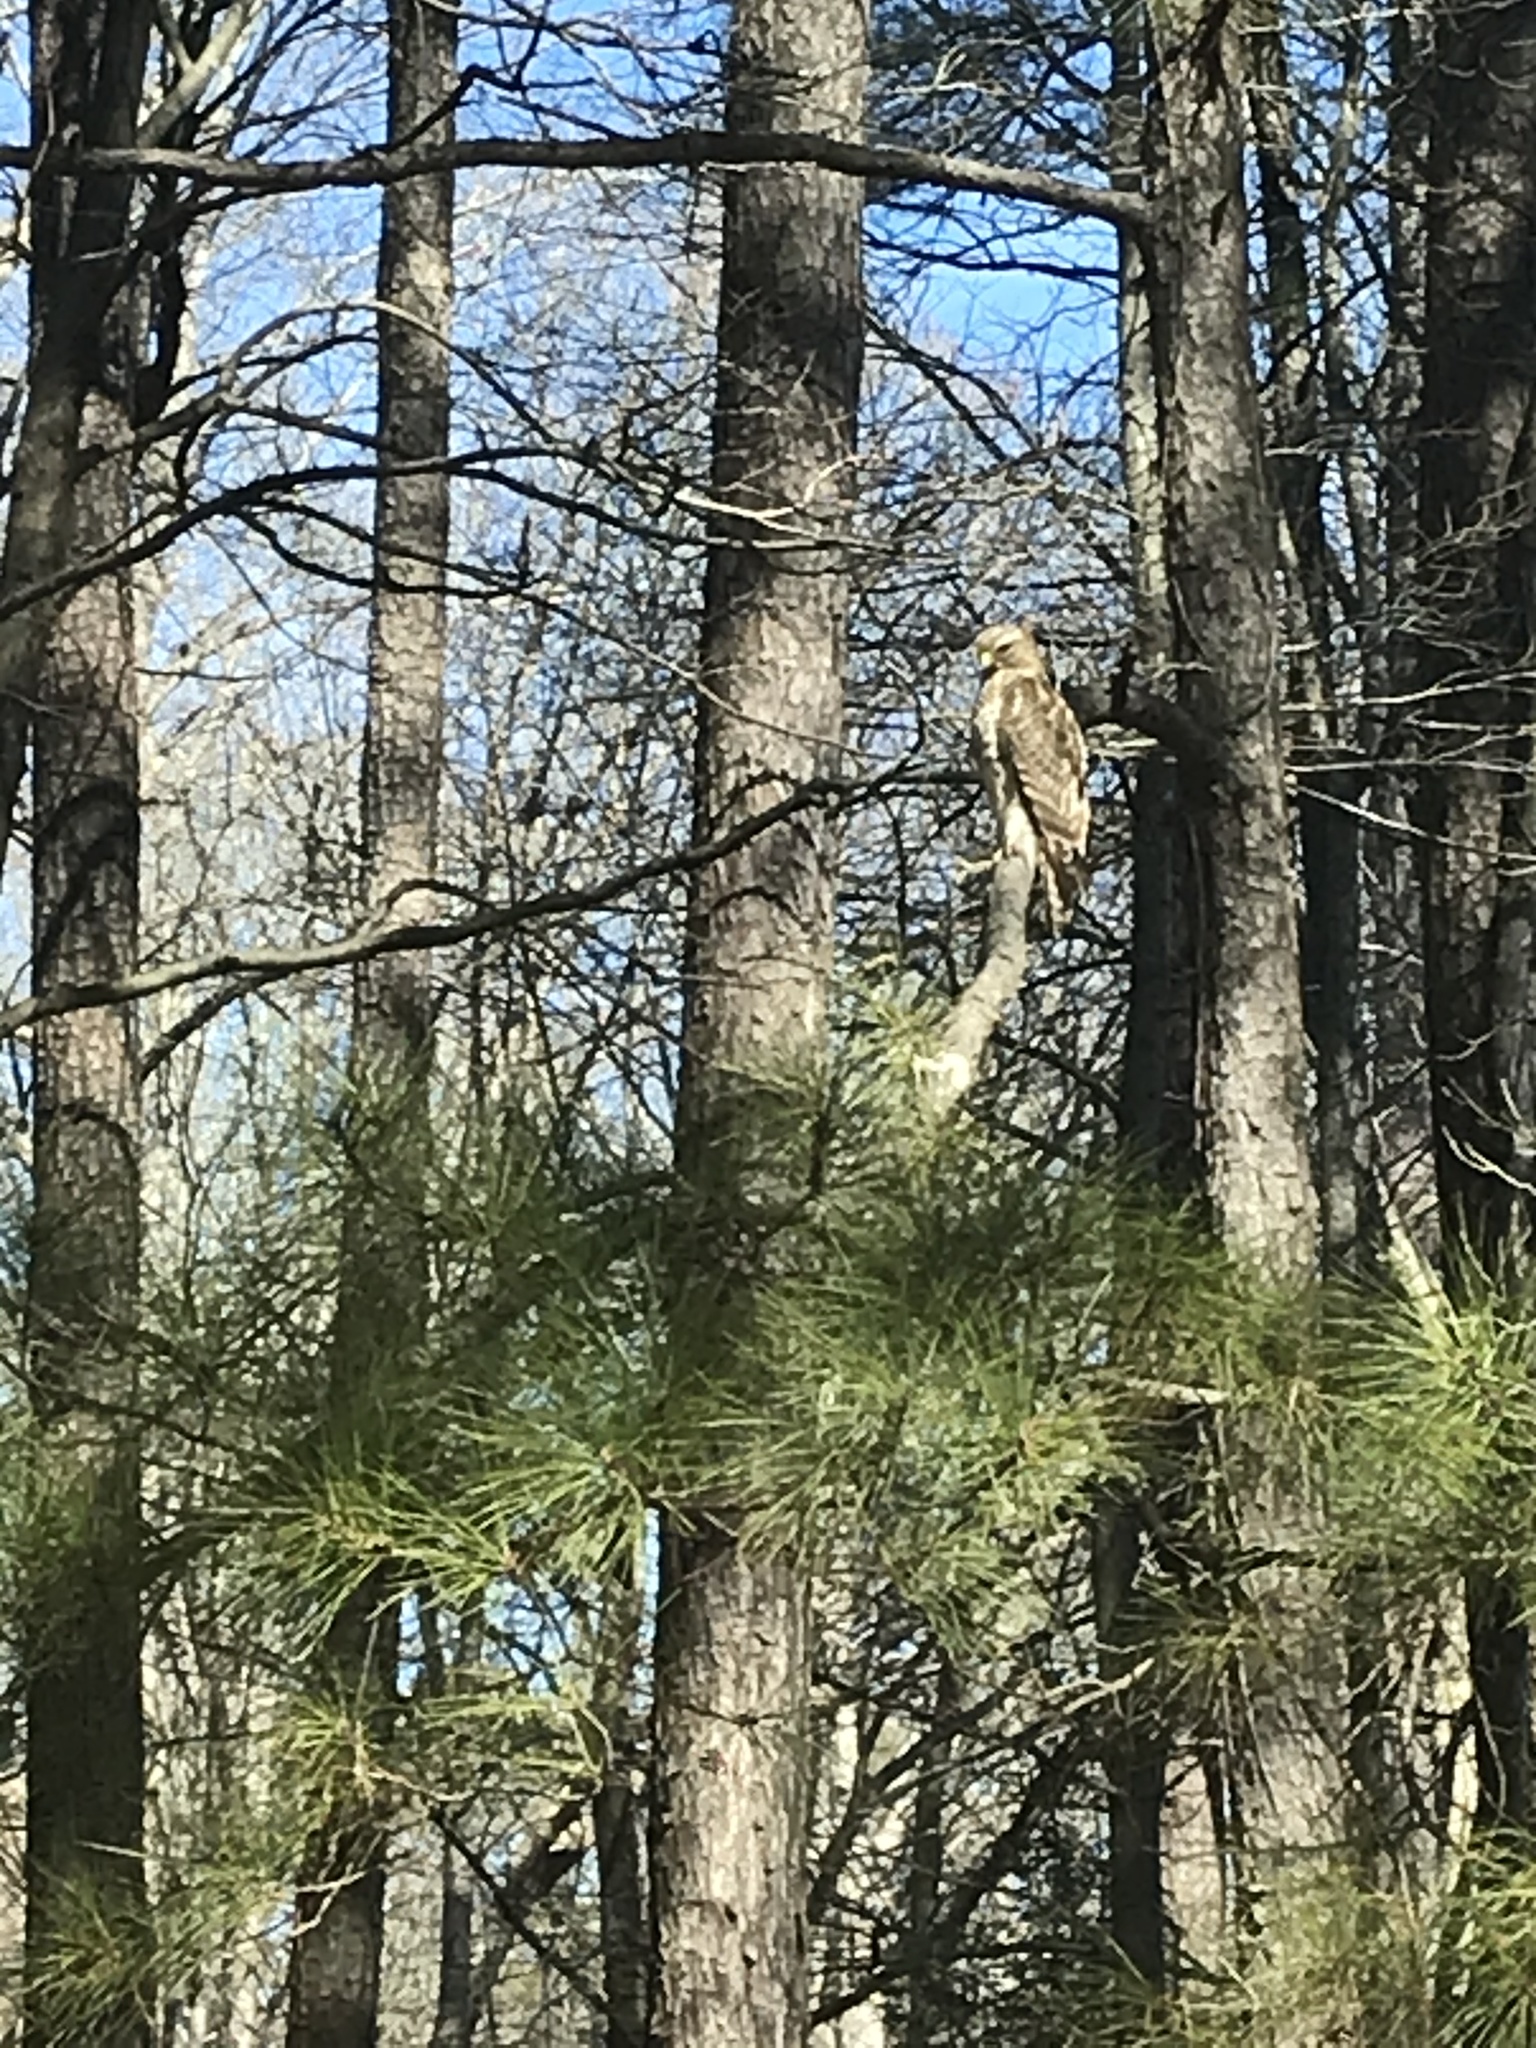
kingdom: Animalia
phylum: Chordata
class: Aves
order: Accipitriformes
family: Accipitridae
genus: Buteo
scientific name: Buteo lineatus
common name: Red-shouldered hawk
